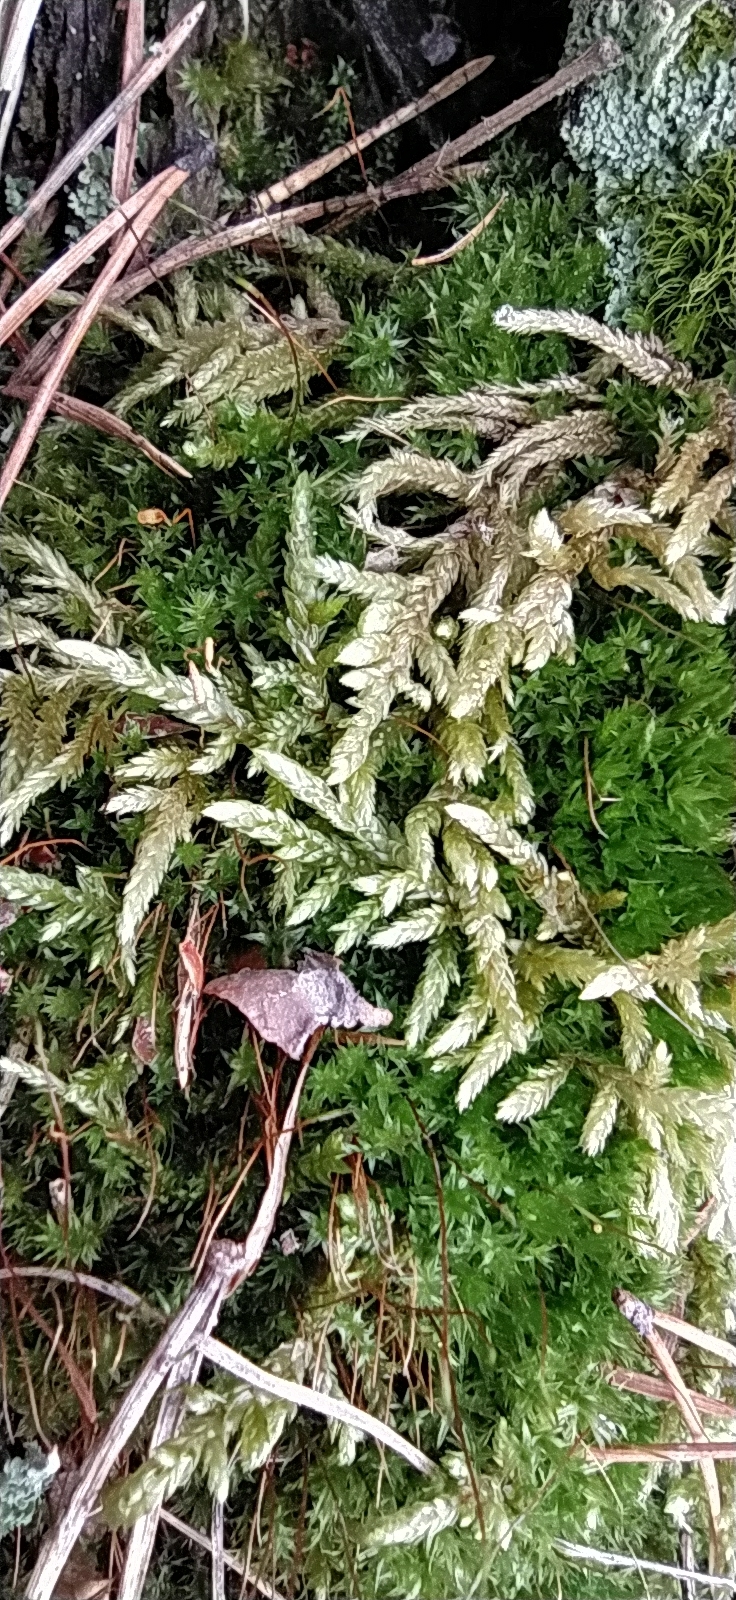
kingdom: Plantae
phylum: Bryophyta
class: Bryopsida
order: Hypnales
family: Hylocomiaceae
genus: Pleurozium
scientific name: Pleurozium schreberi
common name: Red-stemmed feather moss
